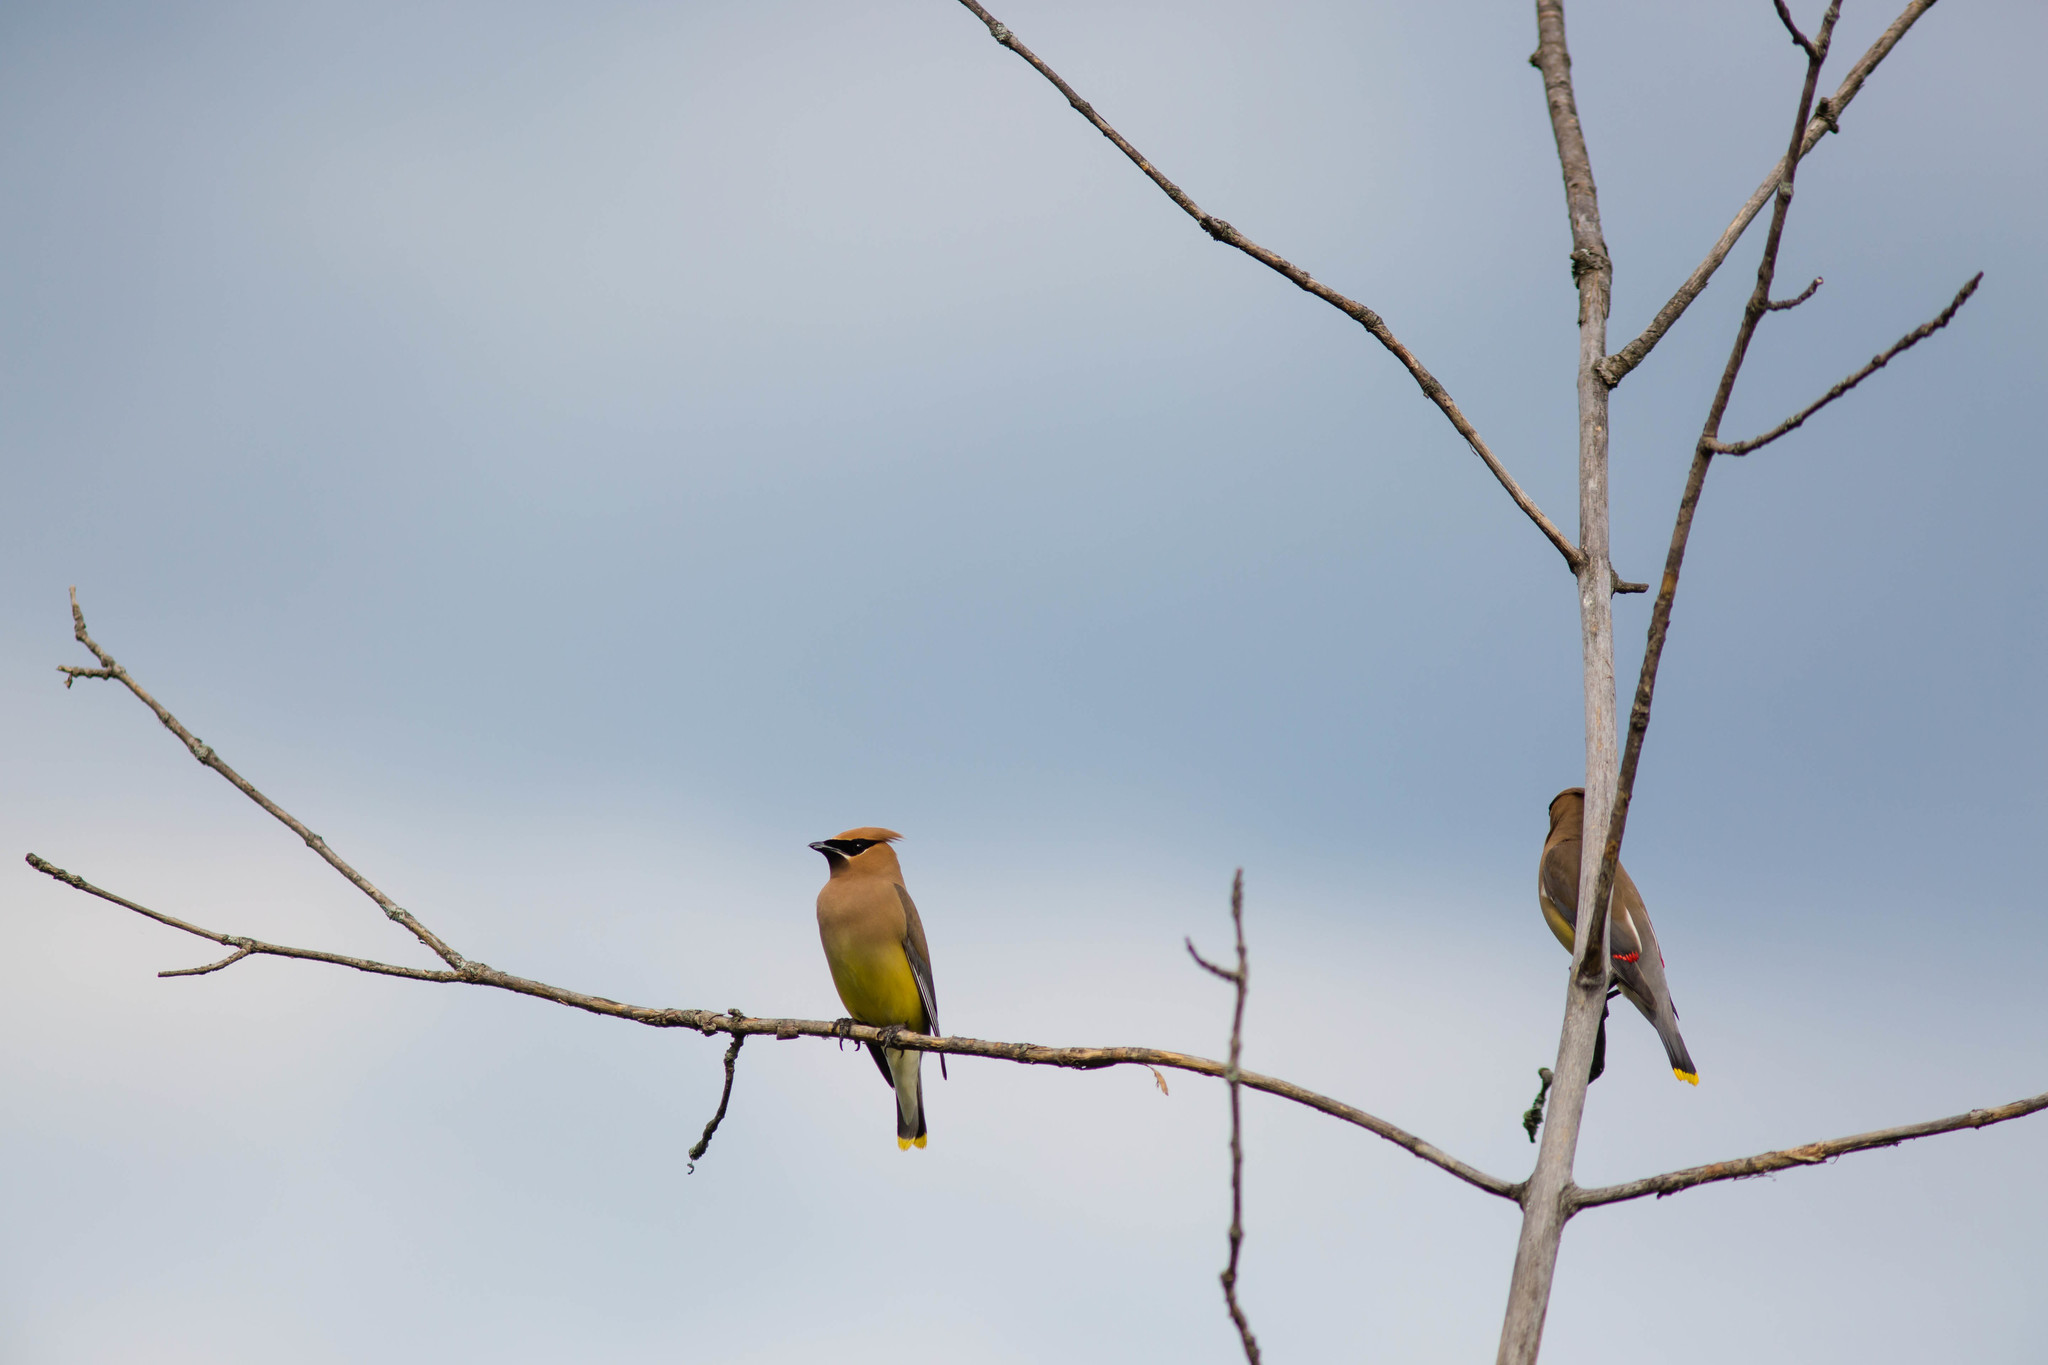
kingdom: Animalia
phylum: Chordata
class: Aves
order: Passeriformes
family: Bombycillidae
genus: Bombycilla
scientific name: Bombycilla cedrorum
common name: Cedar waxwing
